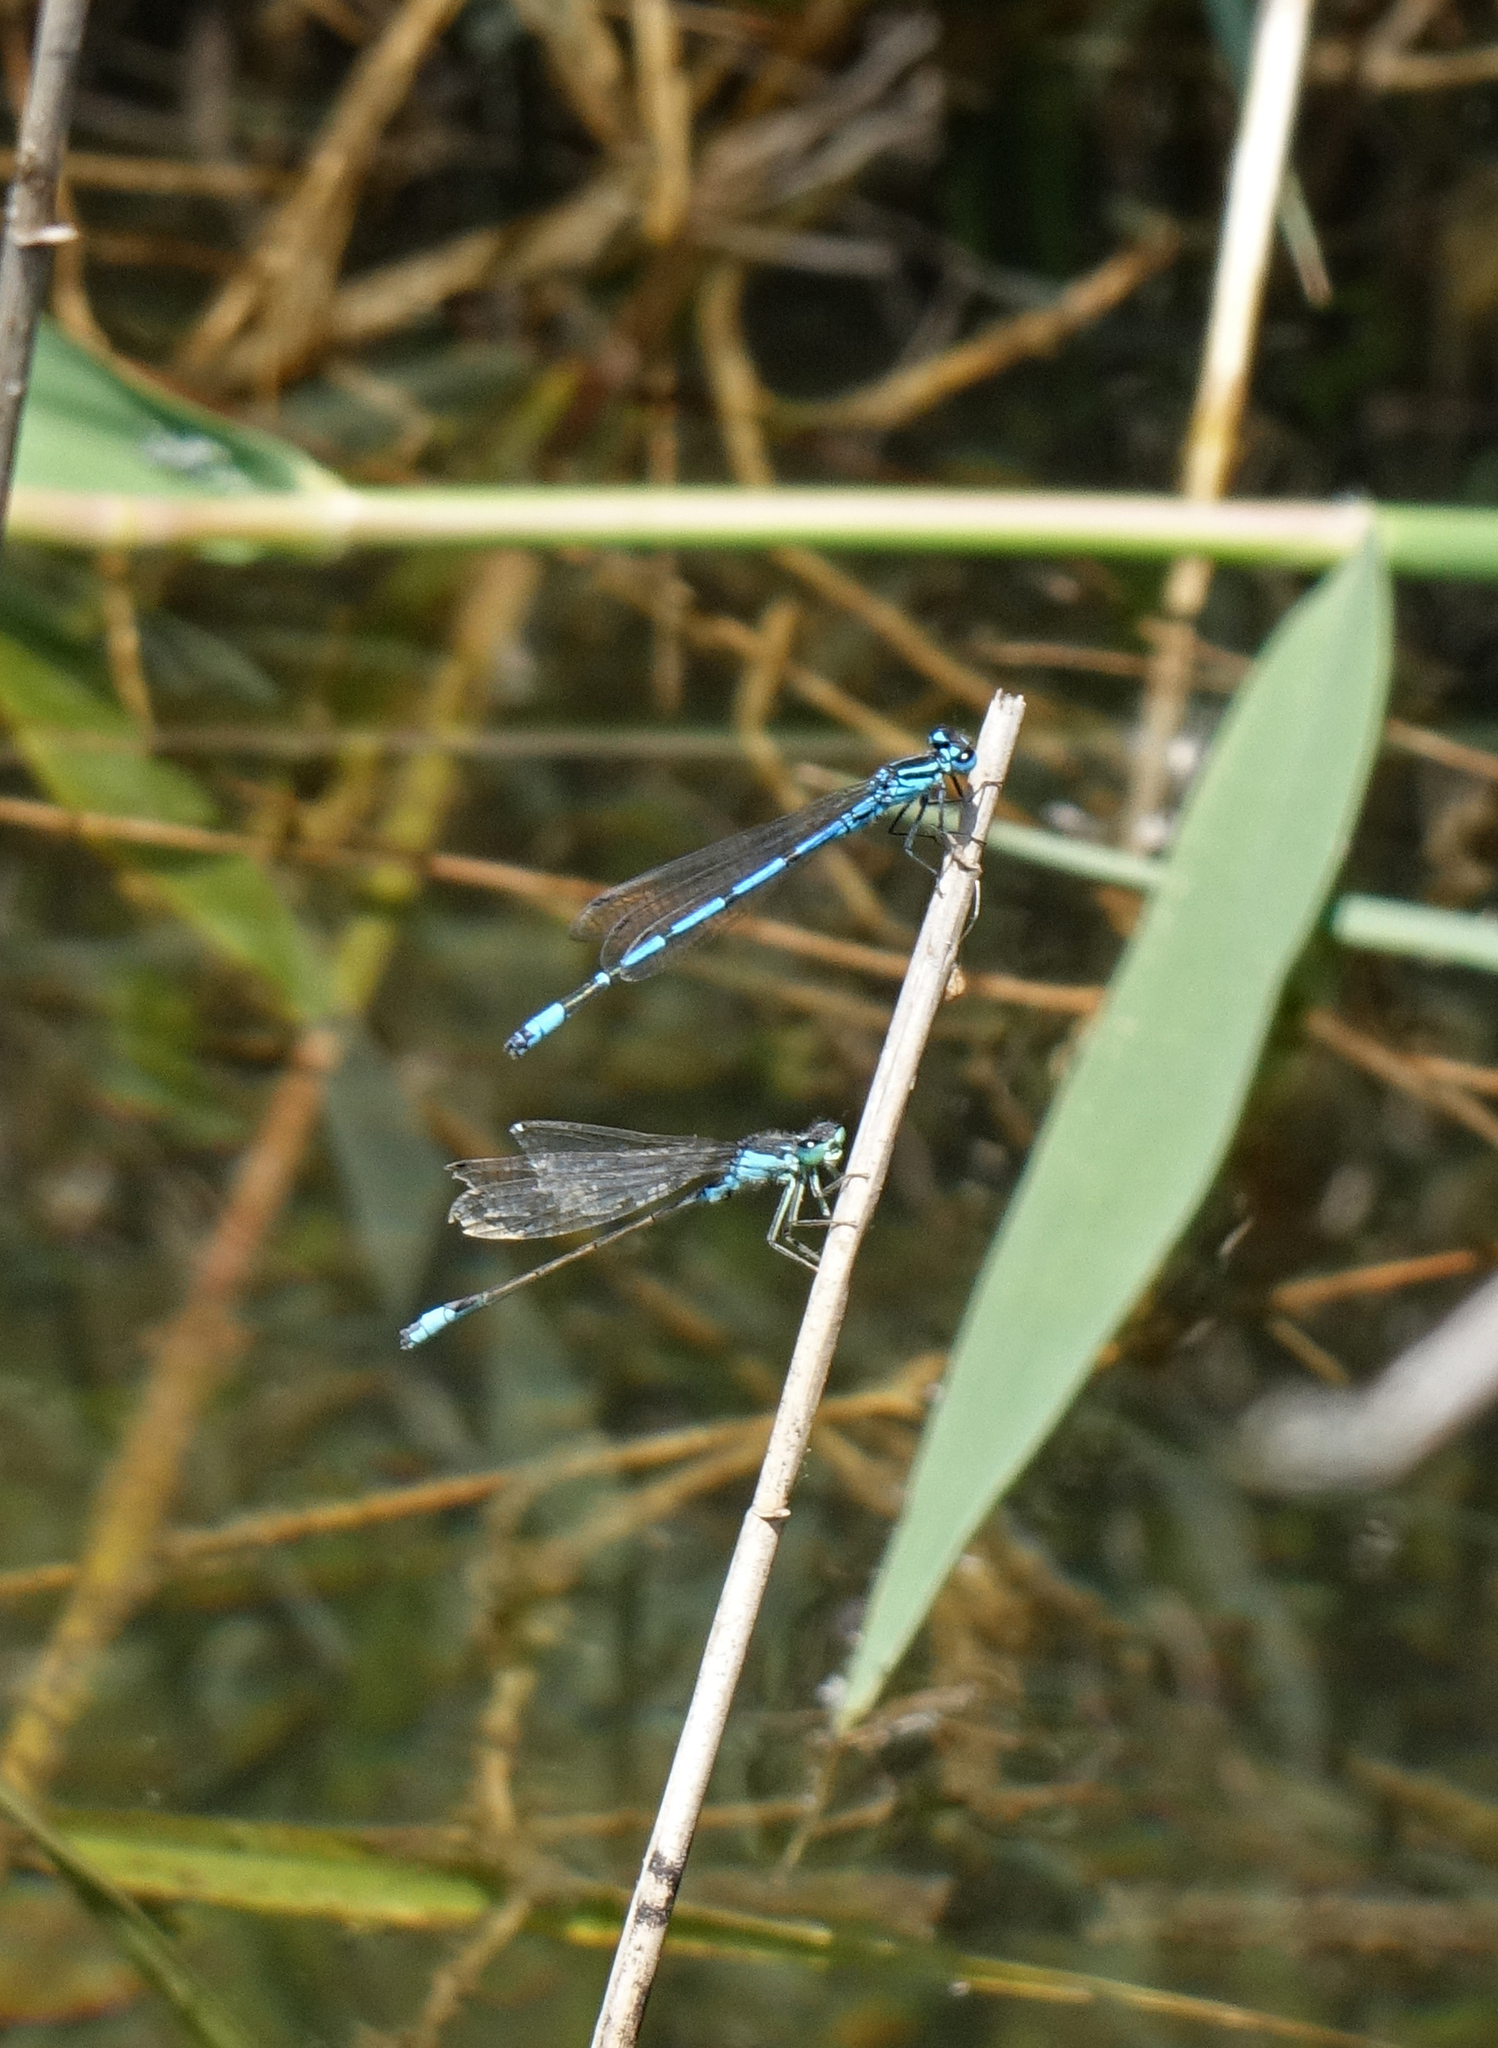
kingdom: Animalia
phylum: Arthropoda
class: Insecta
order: Odonata
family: Coenagrionidae
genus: Coenagrion
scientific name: Coenagrion puella
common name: Azure damselfly
